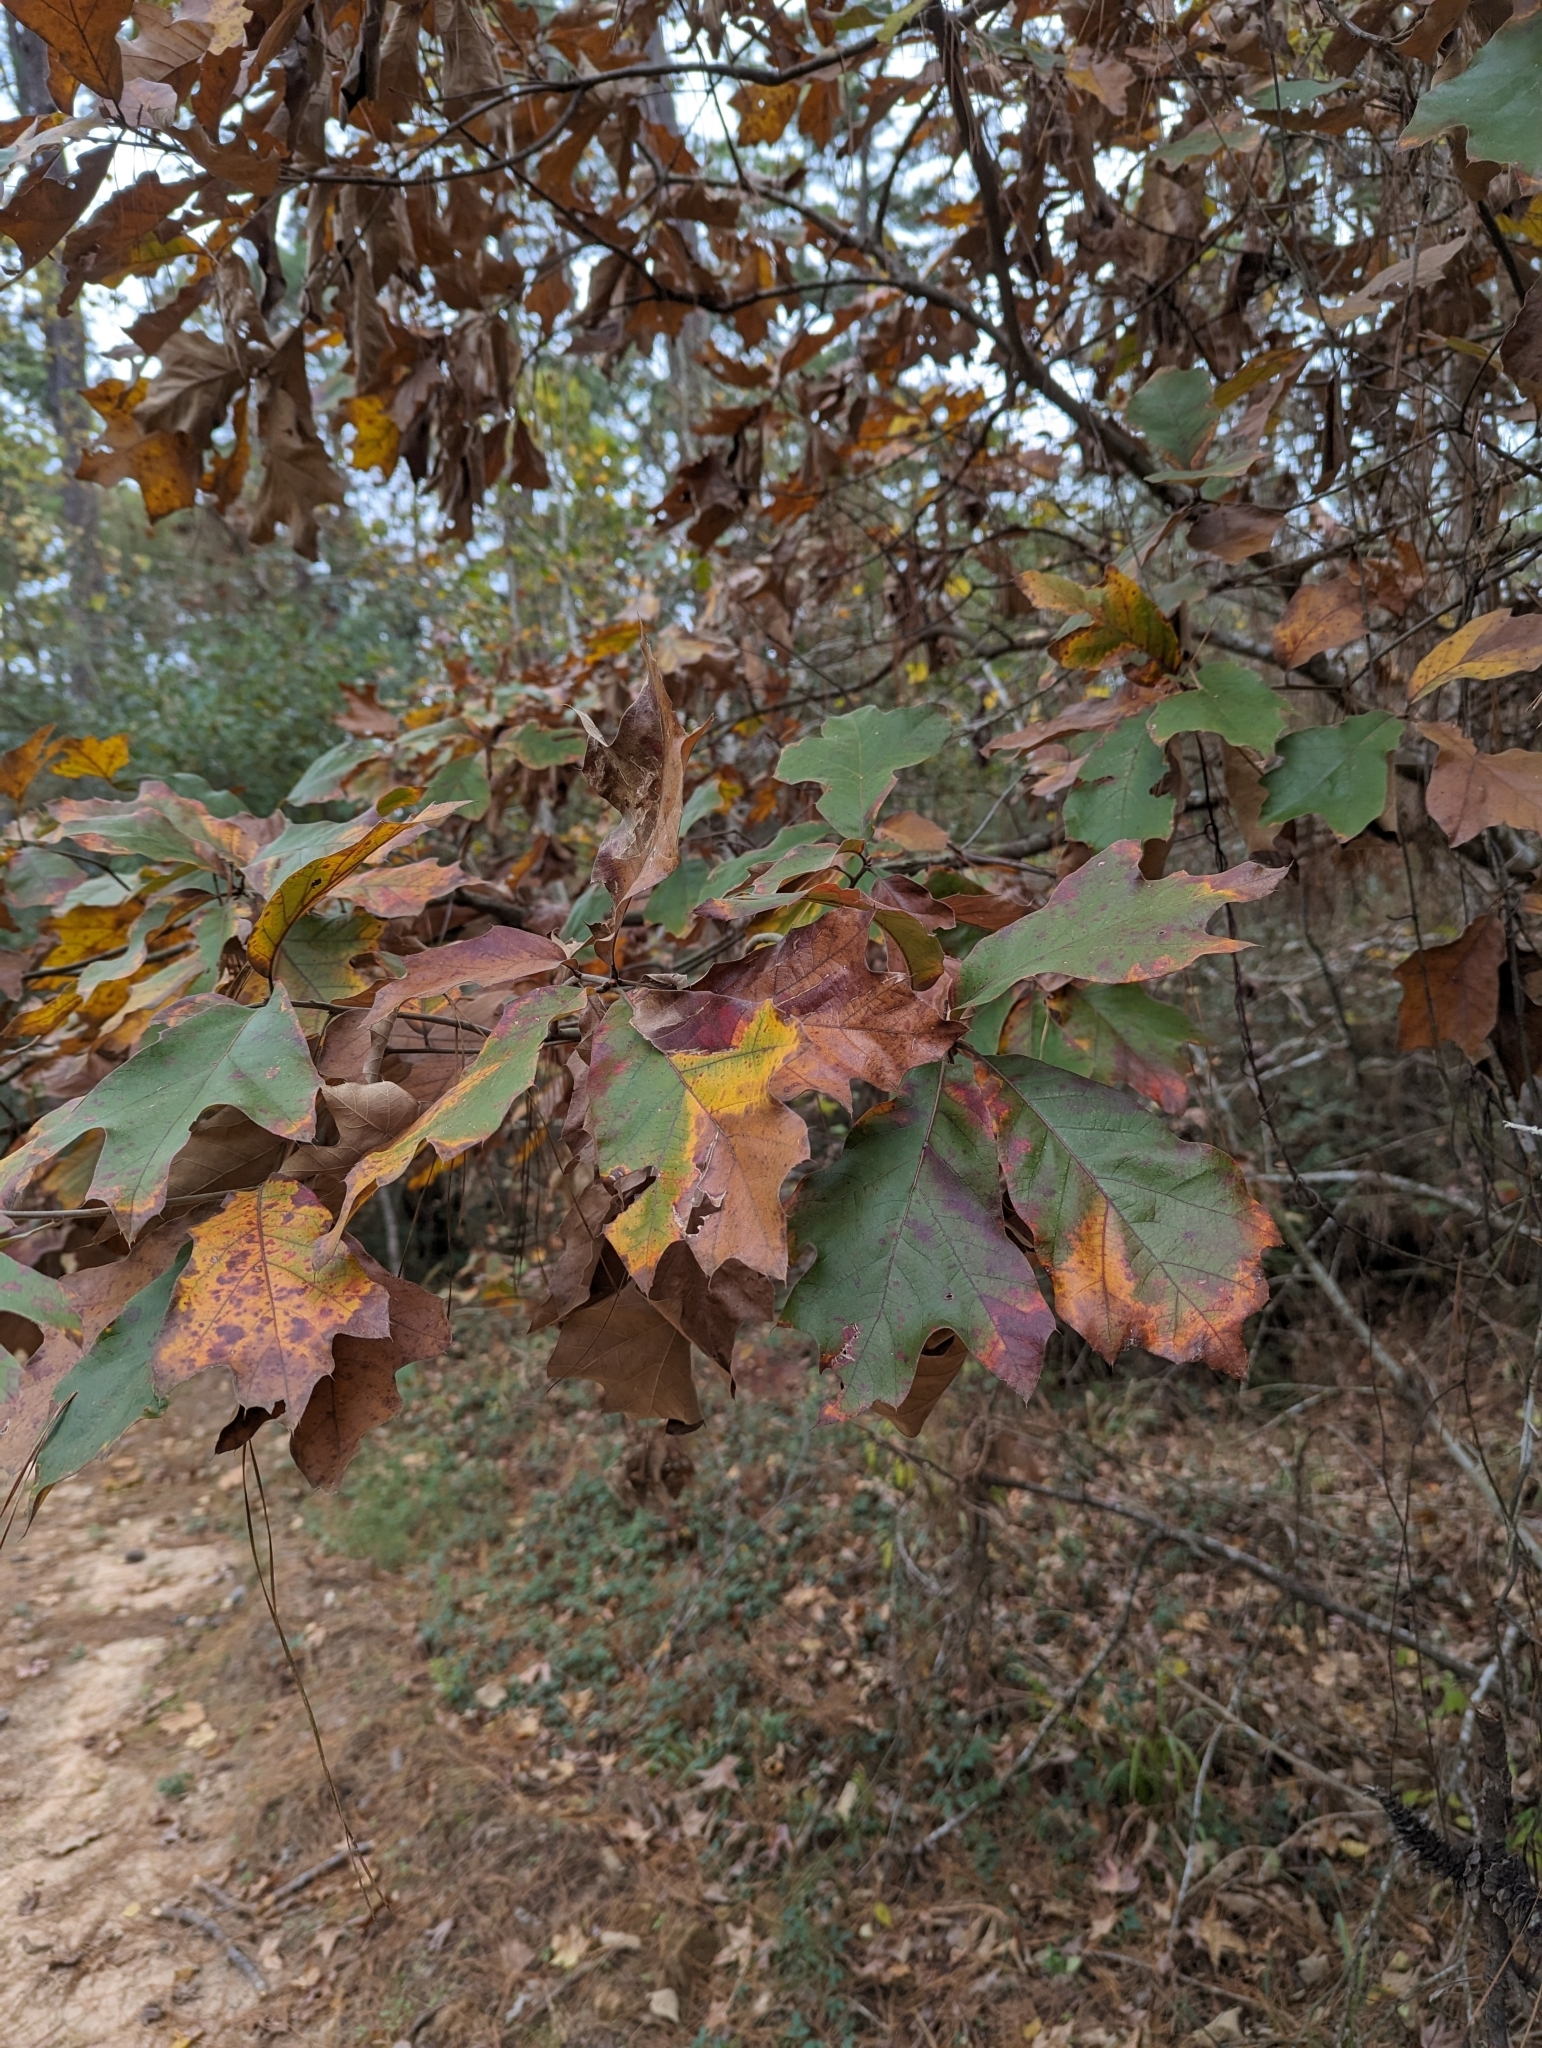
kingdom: Plantae
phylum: Tracheophyta
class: Magnoliopsida
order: Fagales
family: Fagaceae
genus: Quercus
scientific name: Quercus falcata
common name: Southern red oak
